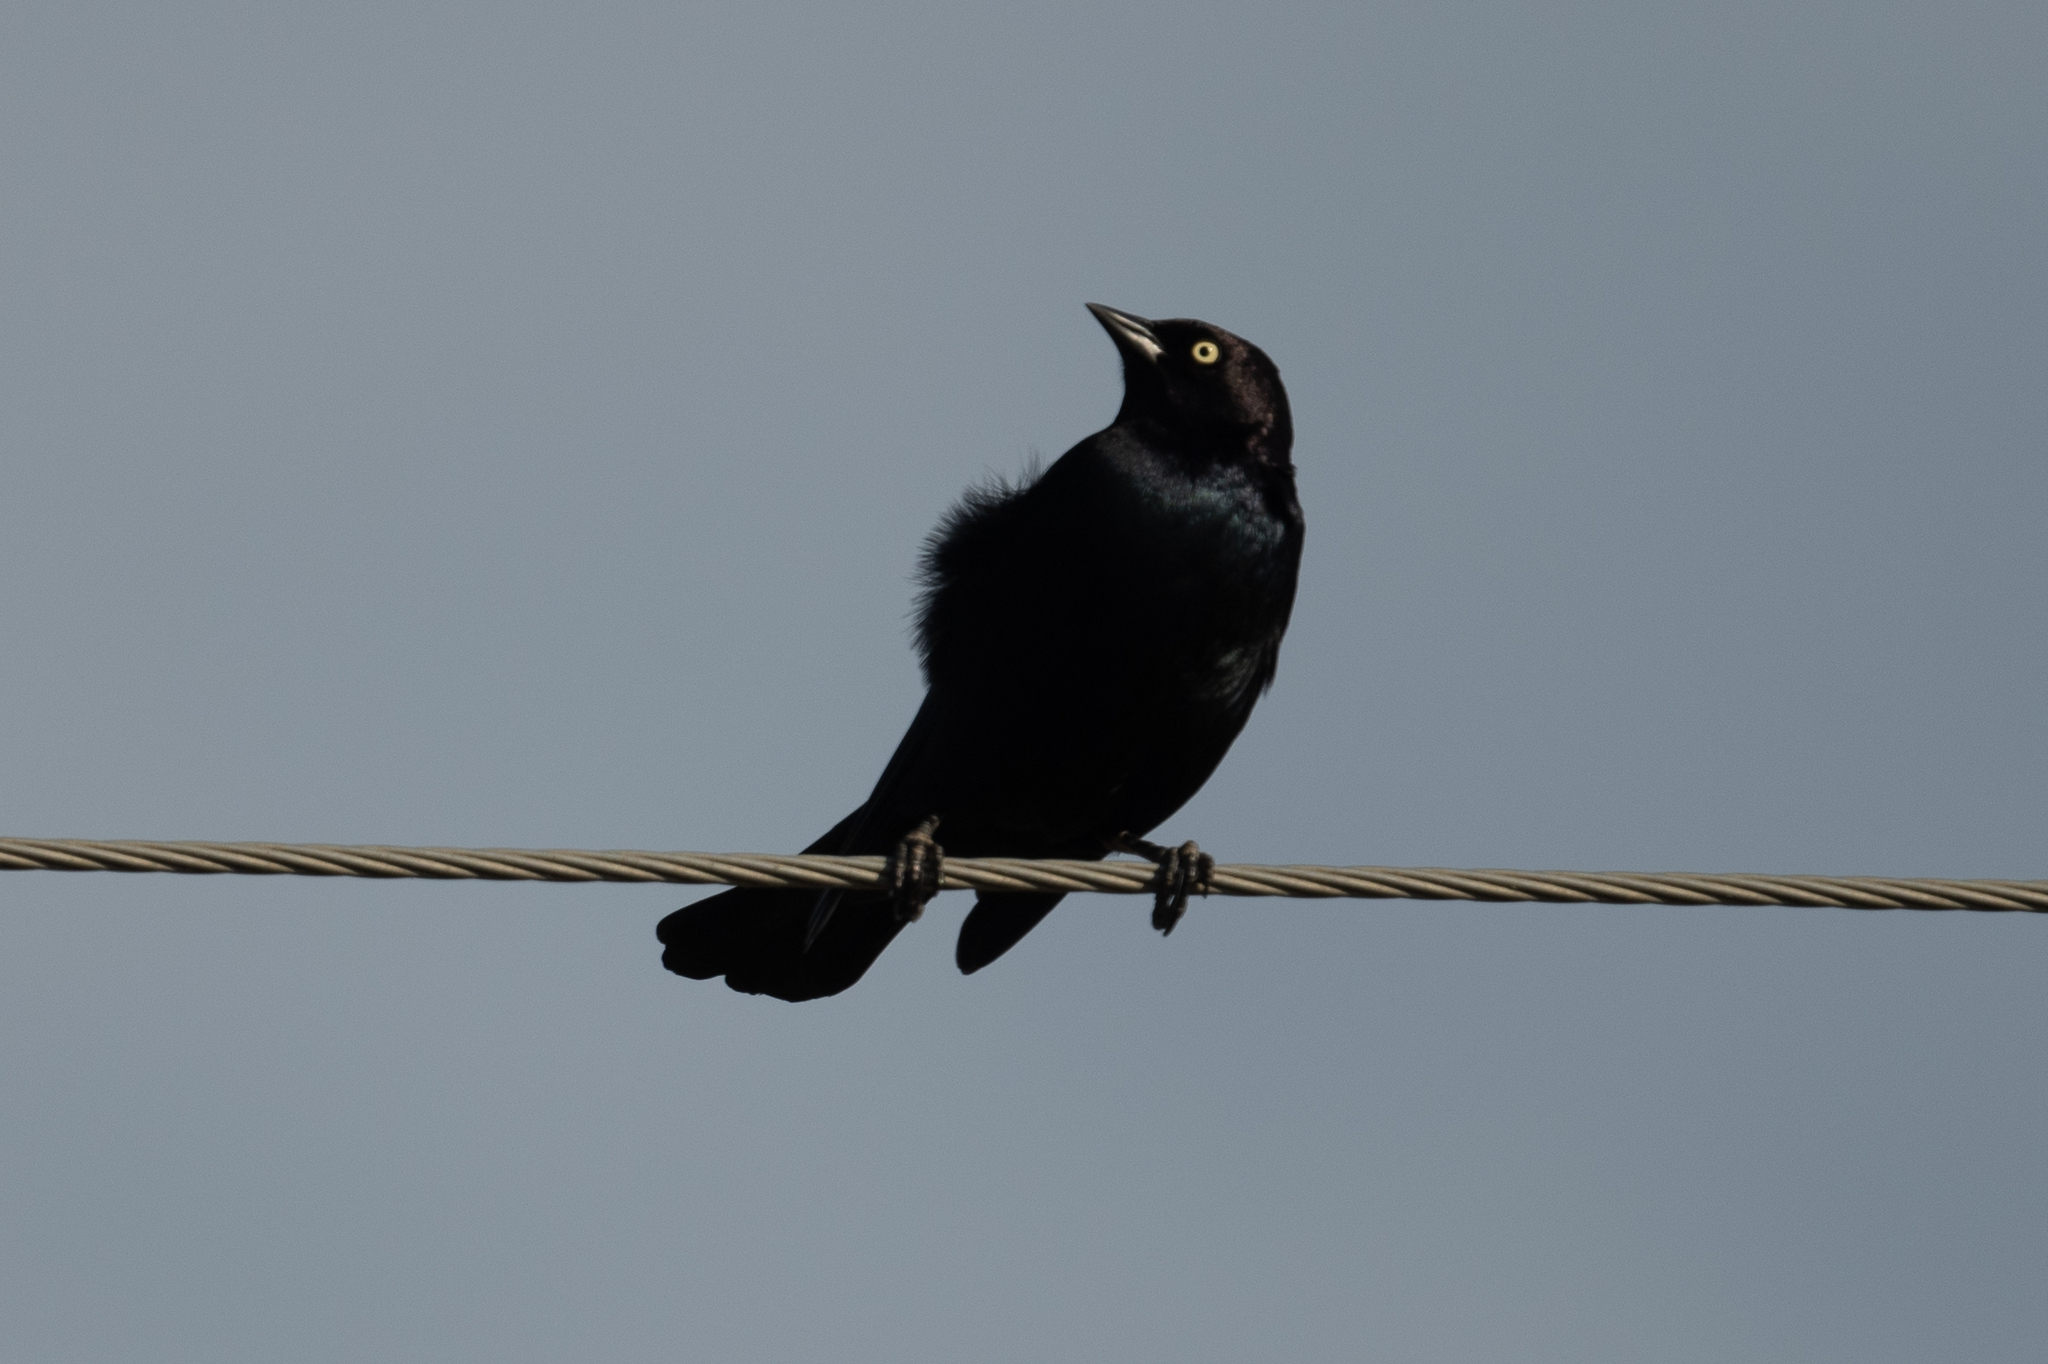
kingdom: Animalia
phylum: Chordata
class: Aves
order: Passeriformes
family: Icteridae
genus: Euphagus
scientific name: Euphagus cyanocephalus
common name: Brewer's blackbird
